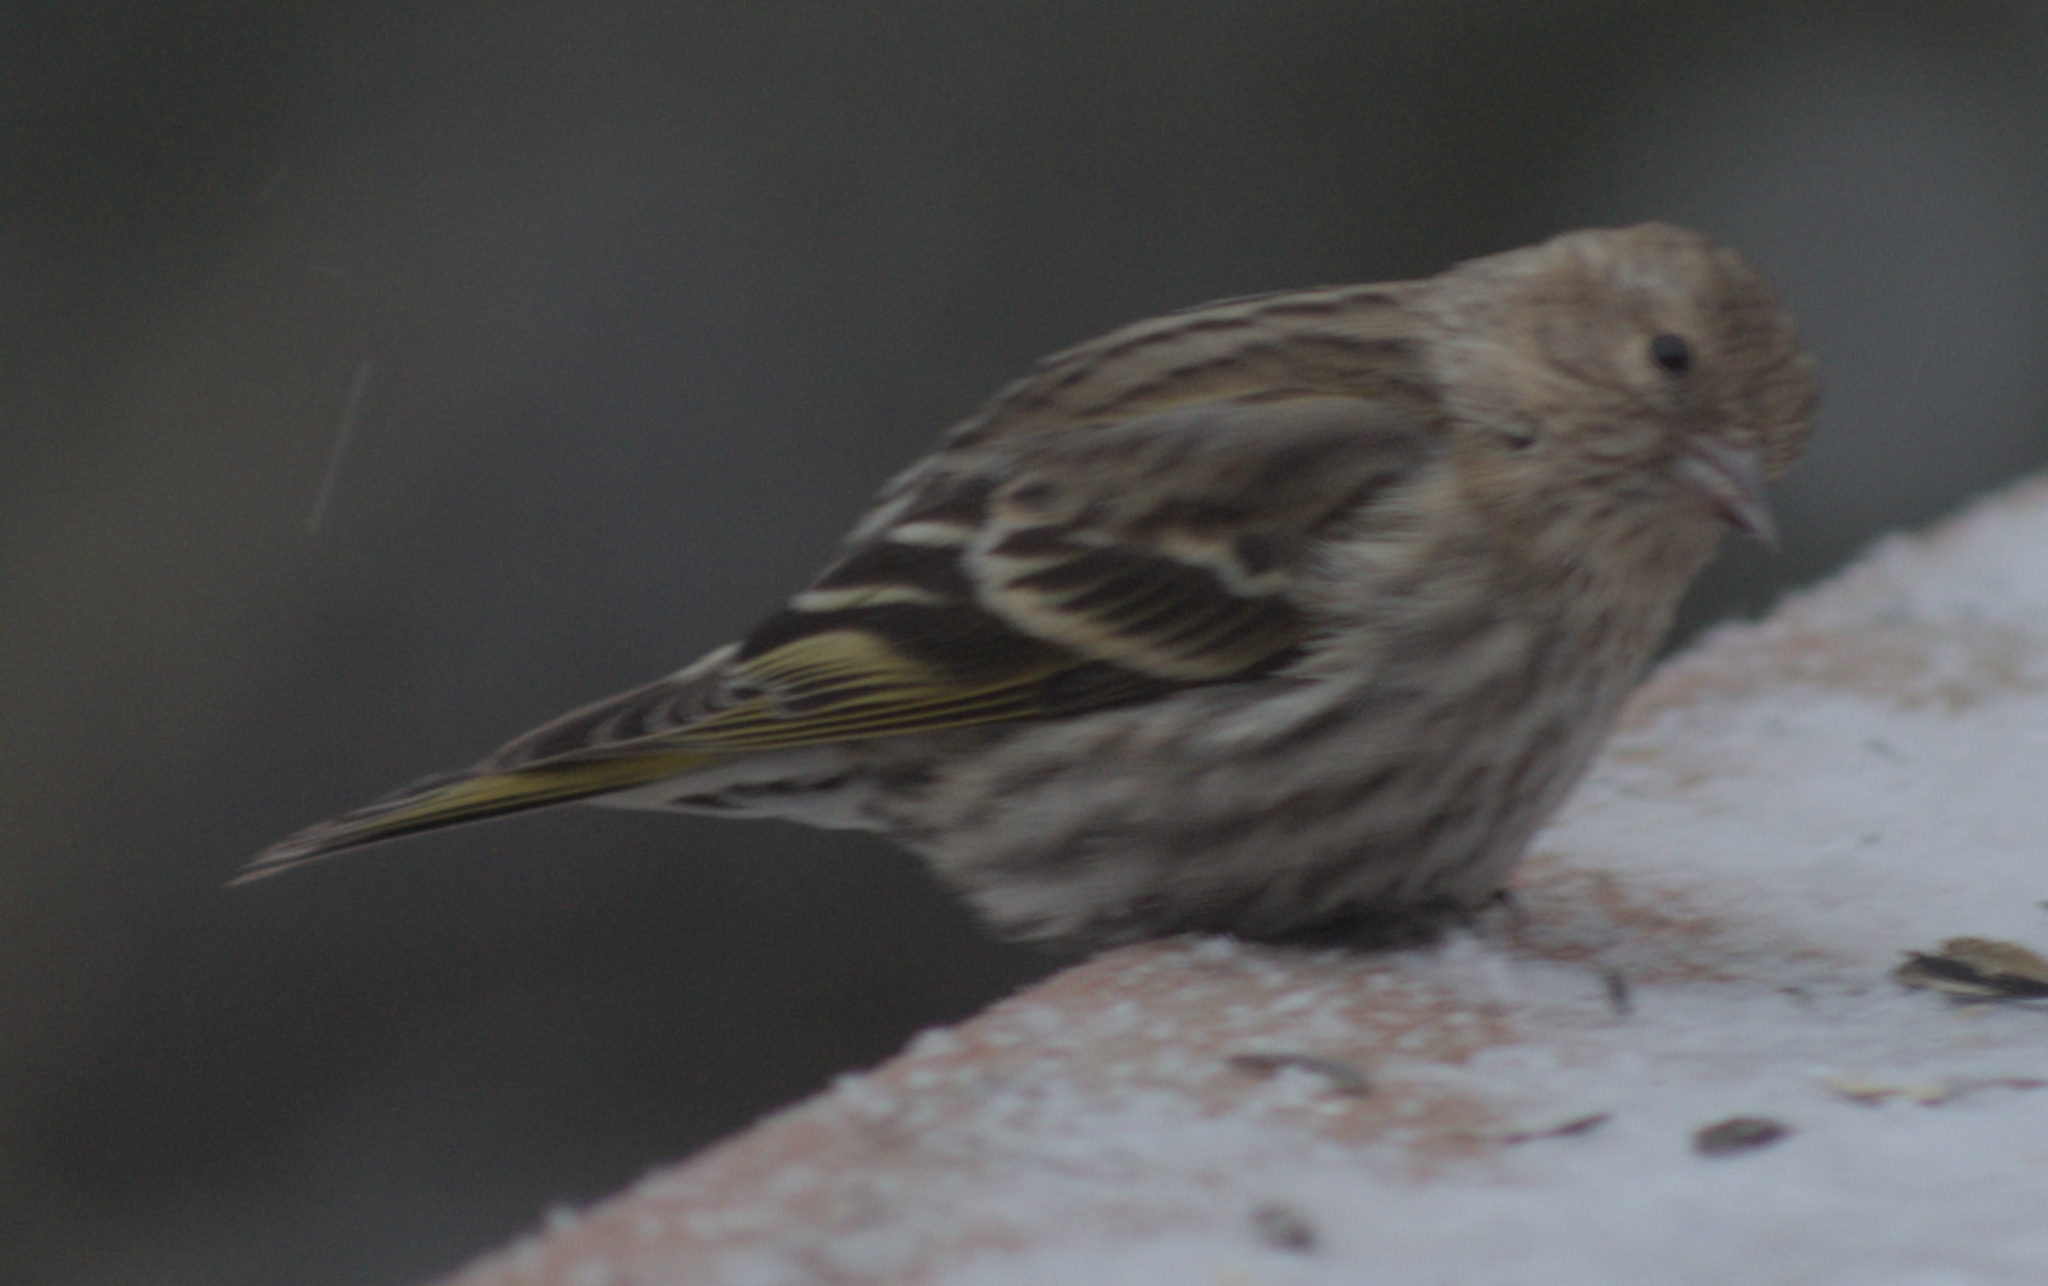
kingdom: Animalia
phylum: Chordata
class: Aves
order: Passeriformes
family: Fringillidae
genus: Spinus
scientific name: Spinus pinus
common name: Pine siskin
